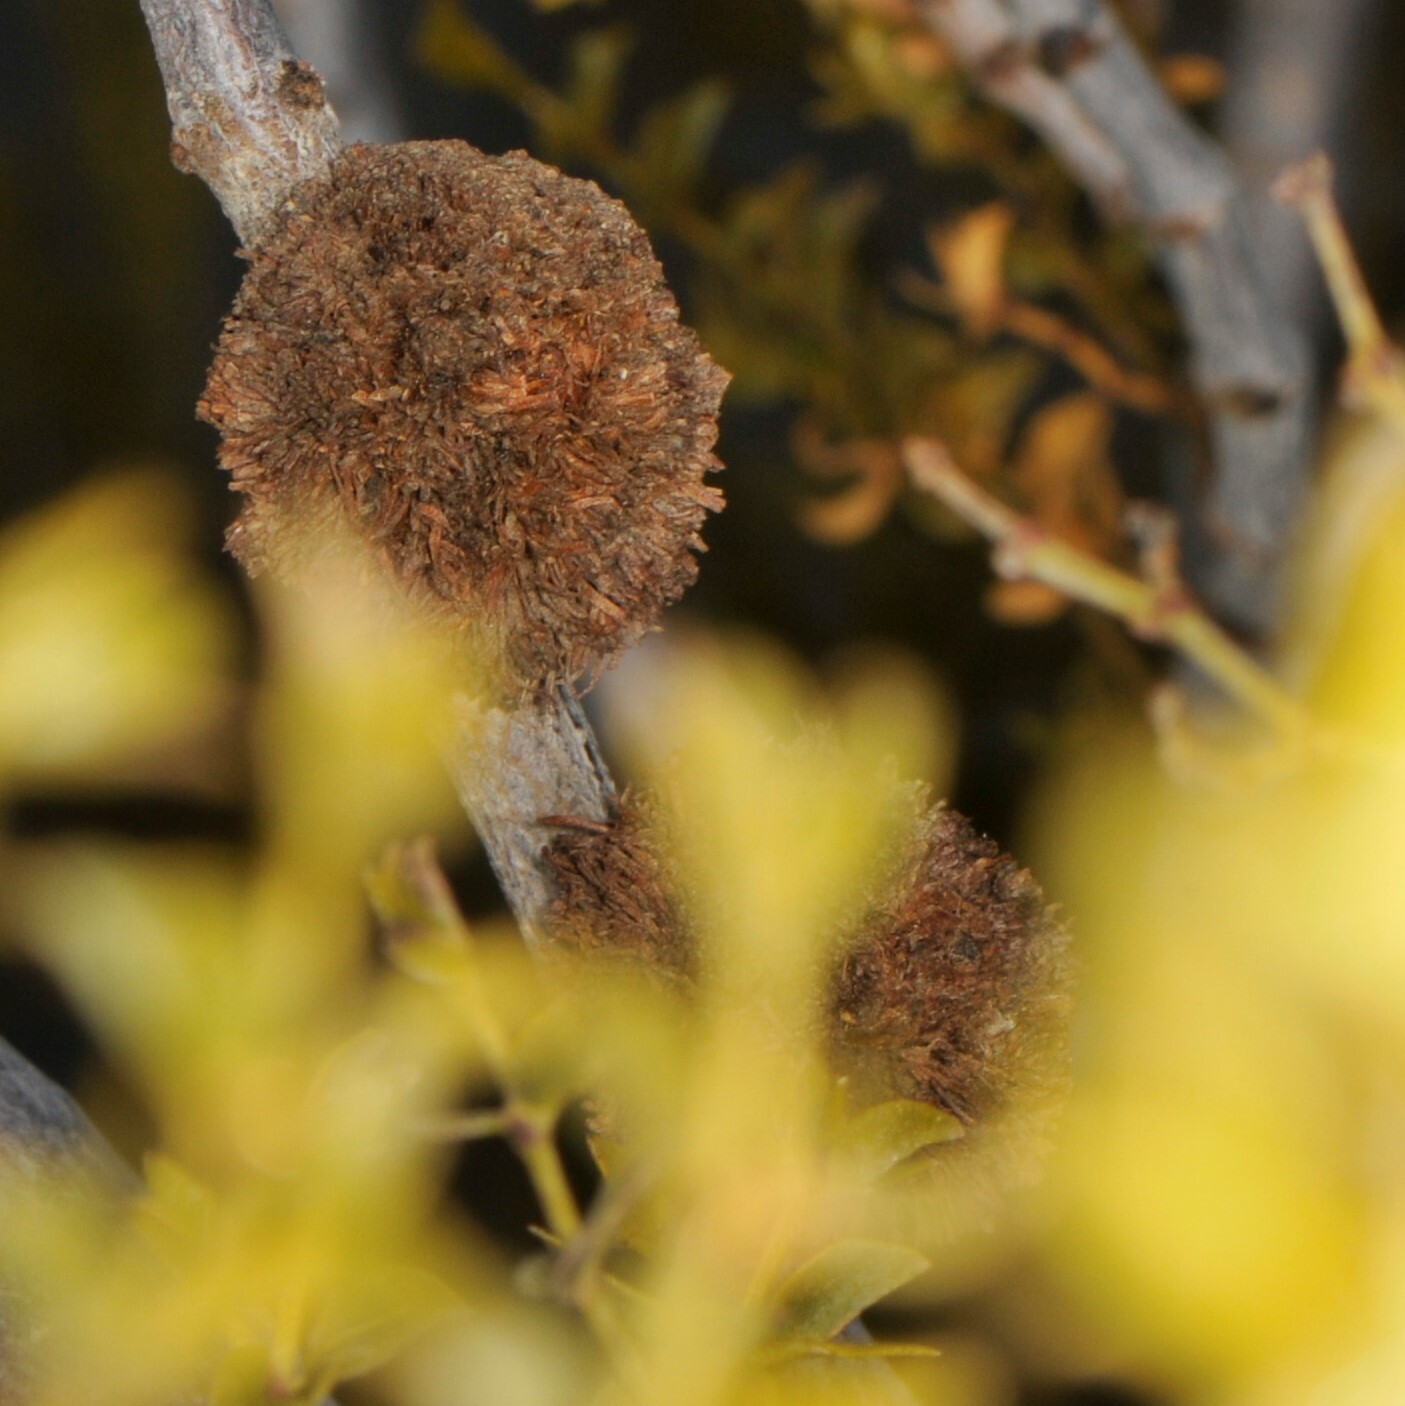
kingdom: Animalia
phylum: Arthropoda
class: Insecta
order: Diptera
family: Cecidomyiidae
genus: Asphondylia
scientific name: Asphondylia auripila
